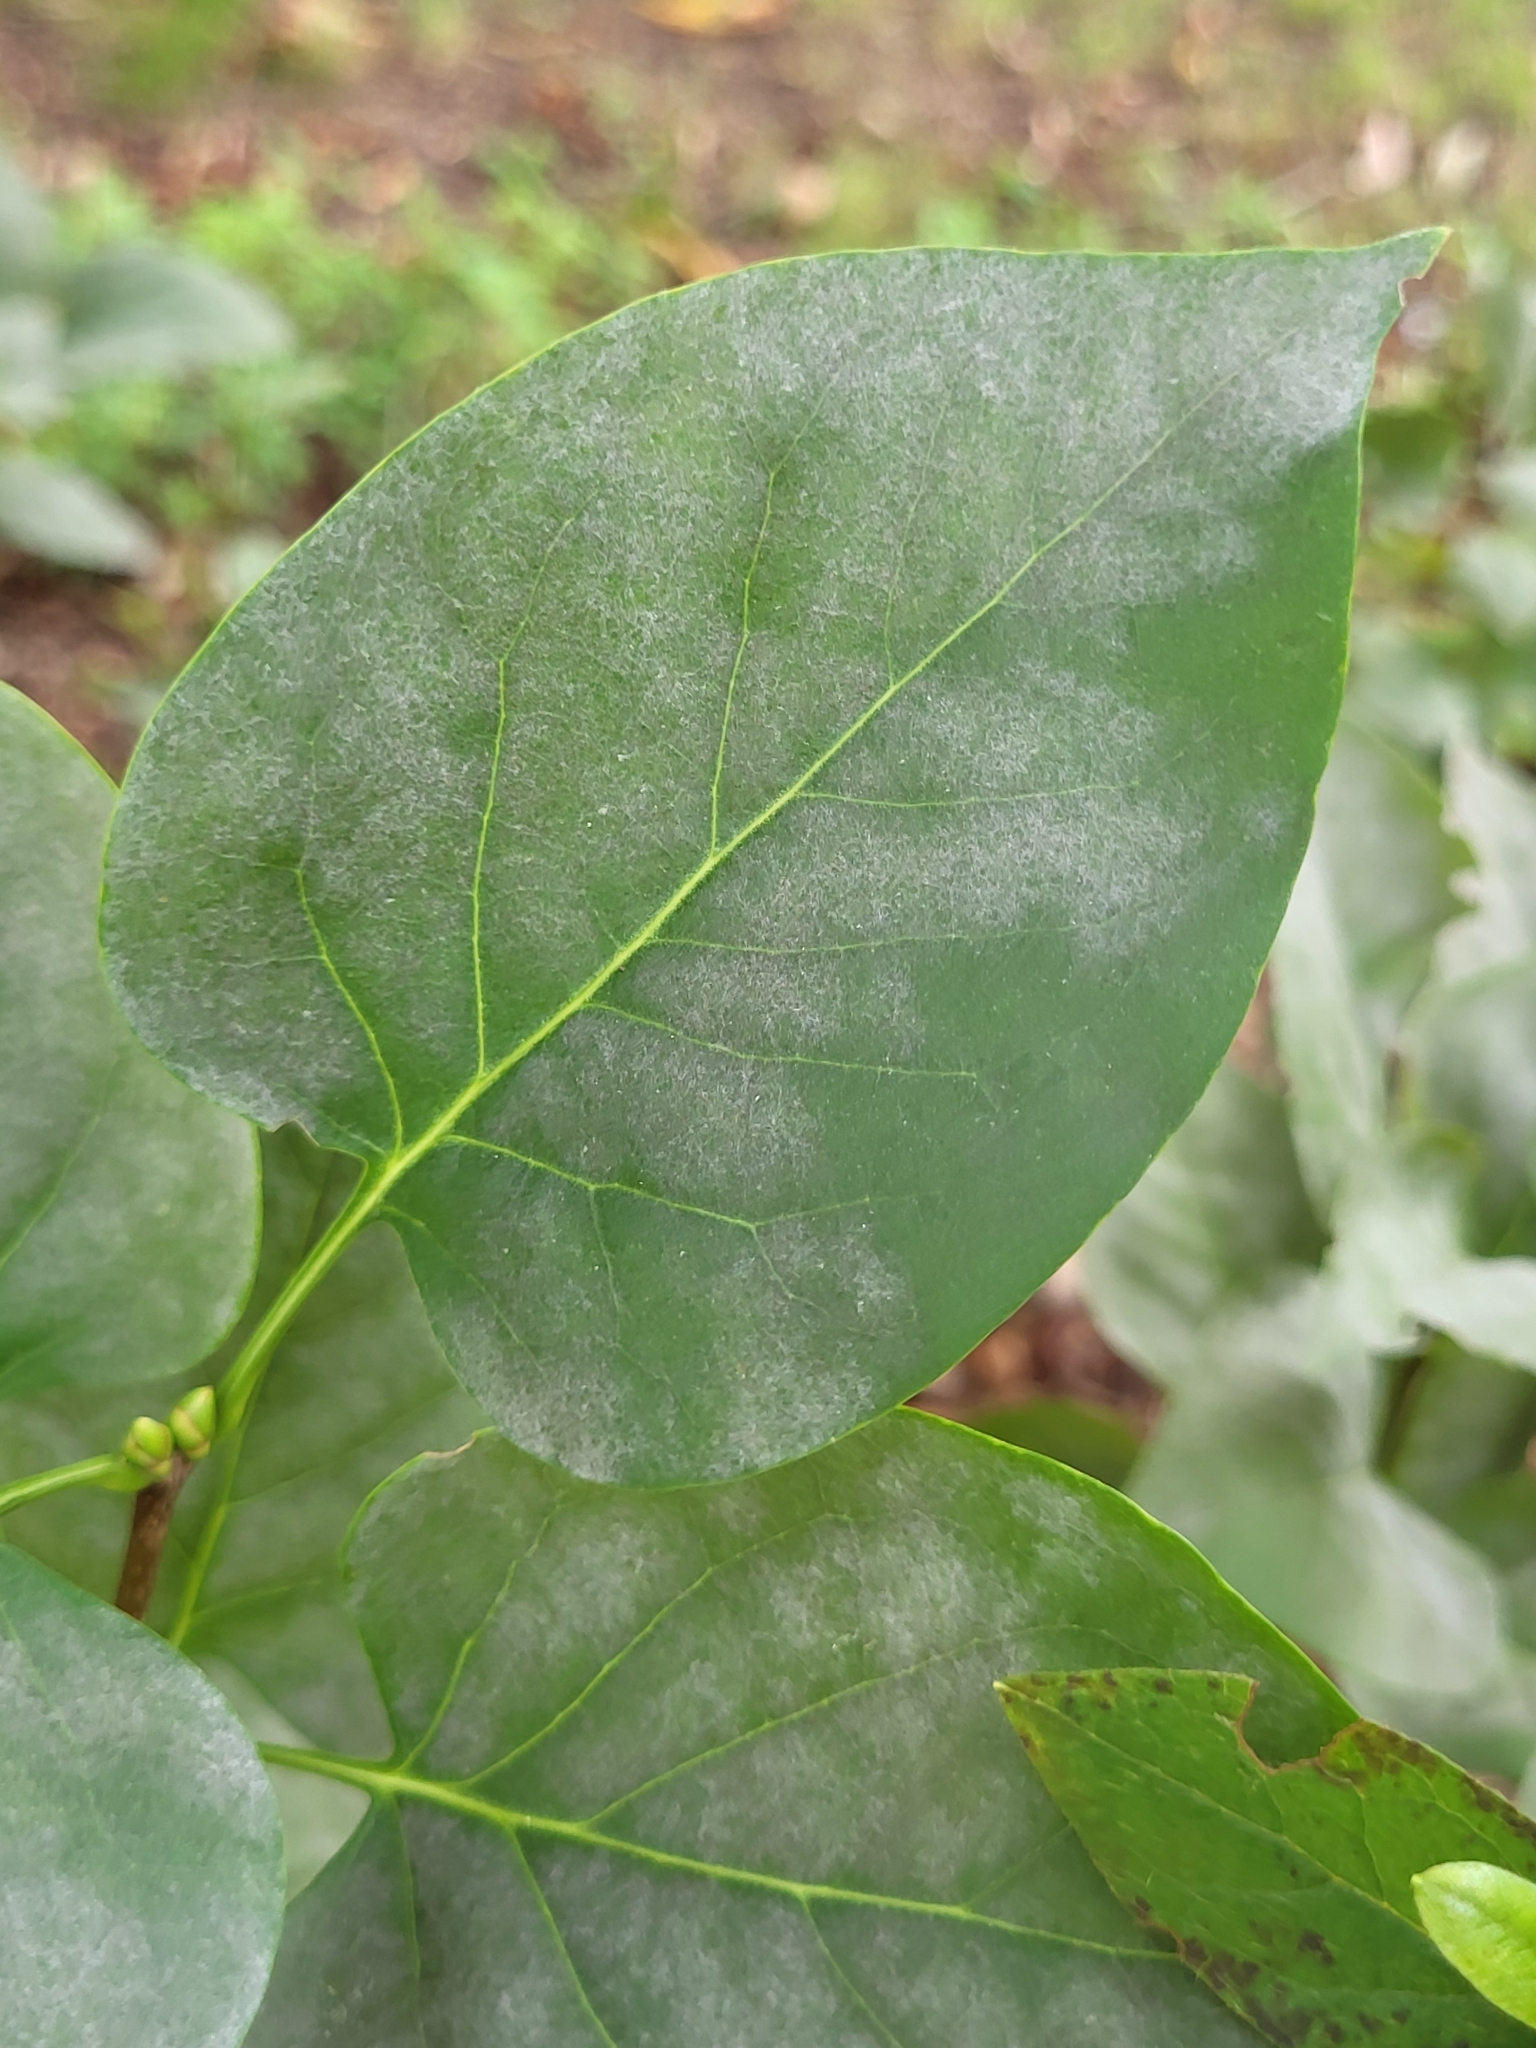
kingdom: Fungi
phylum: Ascomycota
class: Leotiomycetes
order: Helotiales
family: Erysiphaceae
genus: Erysiphe
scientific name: Erysiphe syringae
